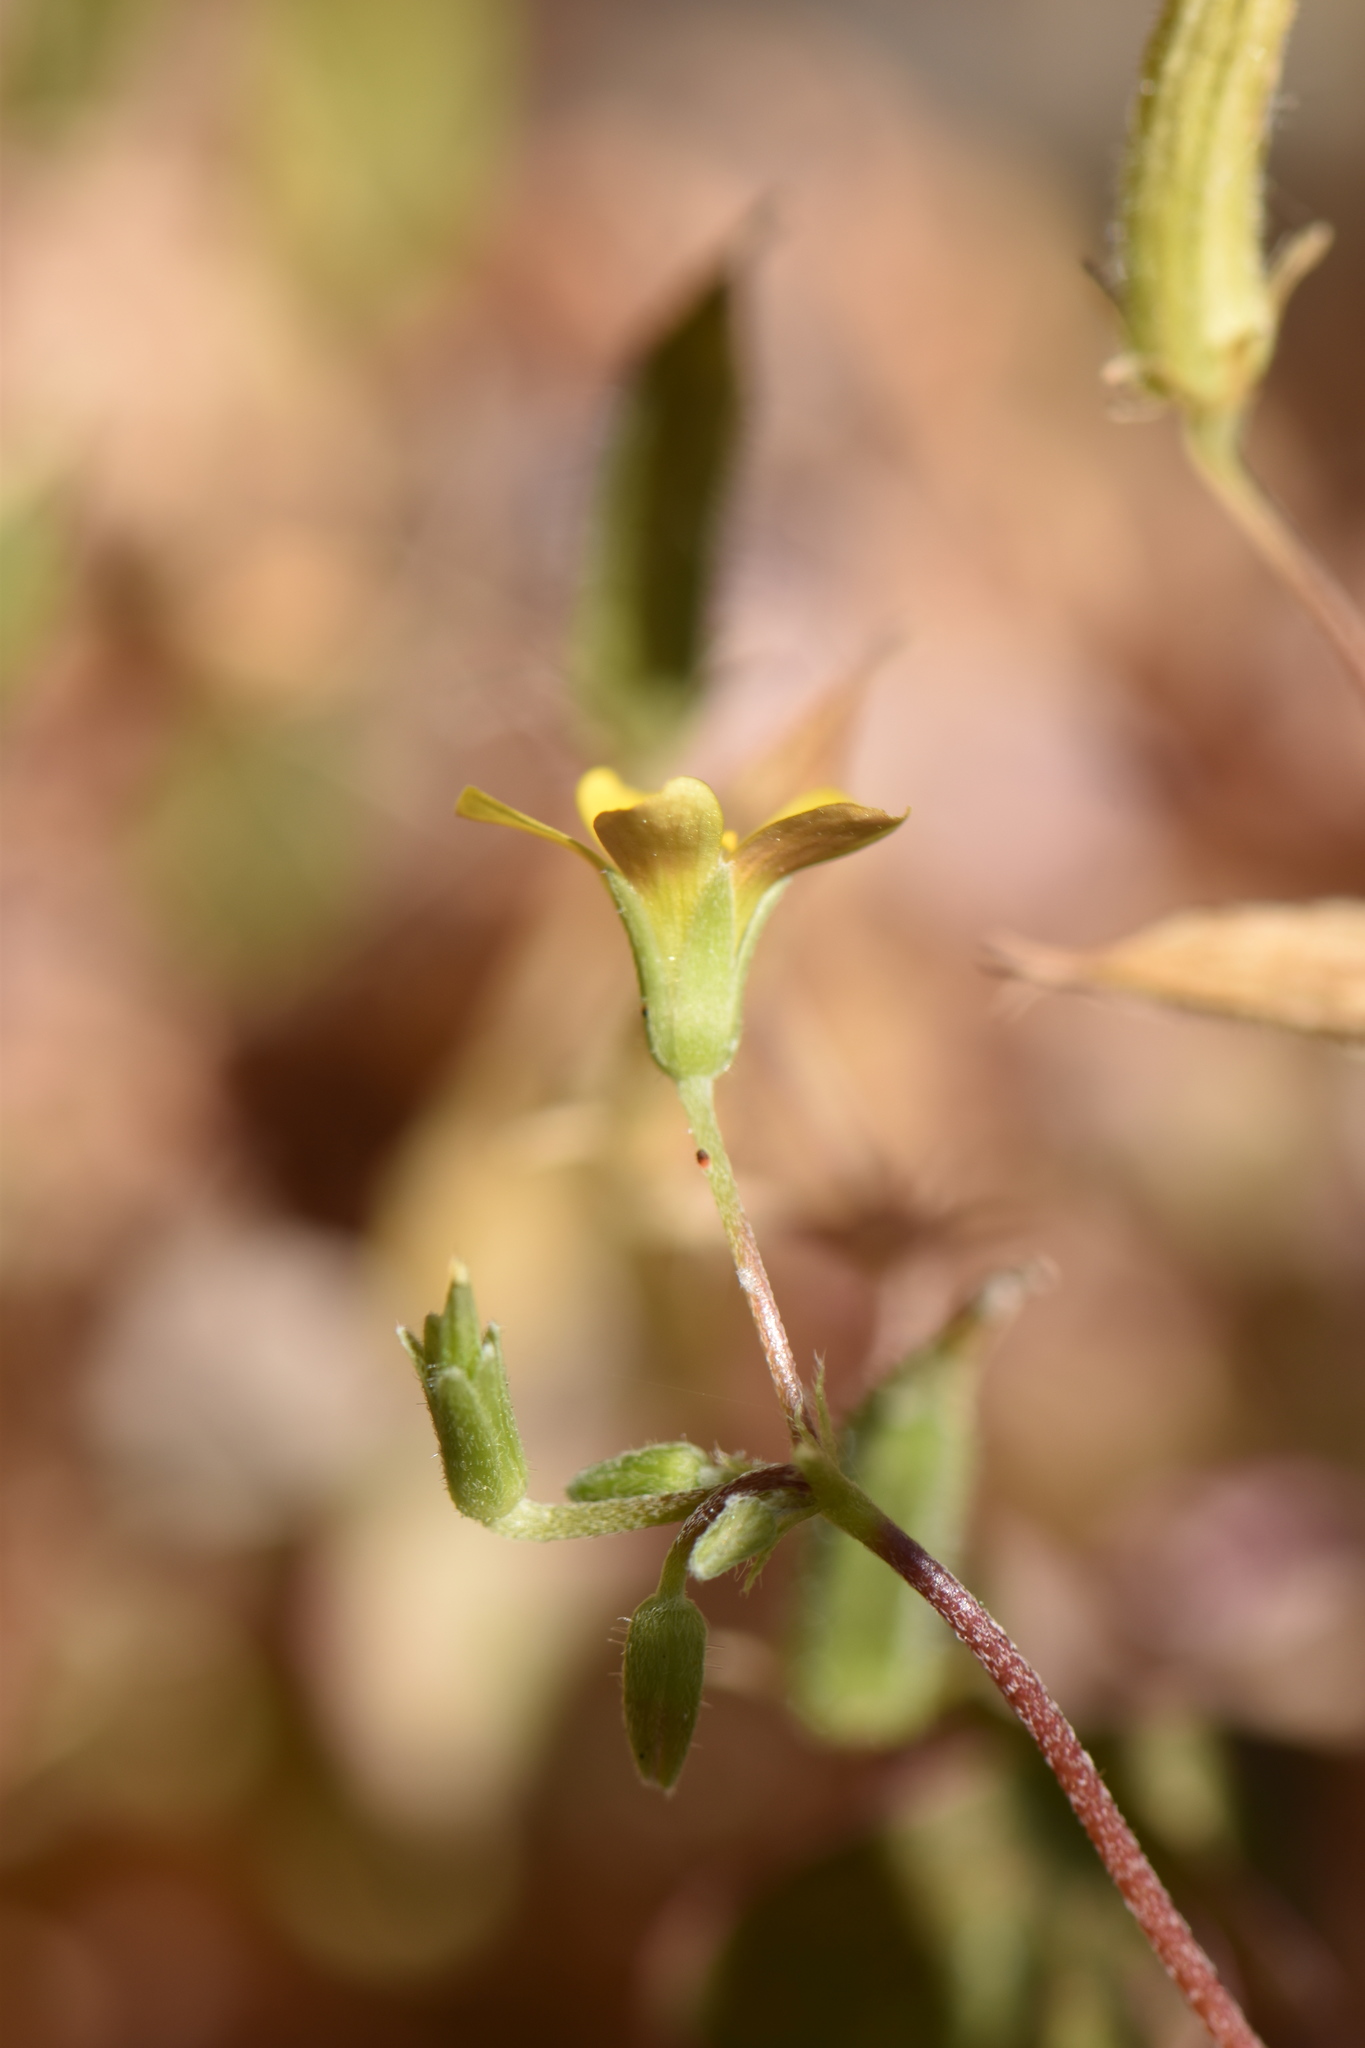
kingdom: Plantae
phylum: Tracheophyta
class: Magnoliopsida
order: Oxalidales
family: Oxalidaceae
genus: Oxalis
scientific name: Oxalis corniculata
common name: Procumbent yellow-sorrel
